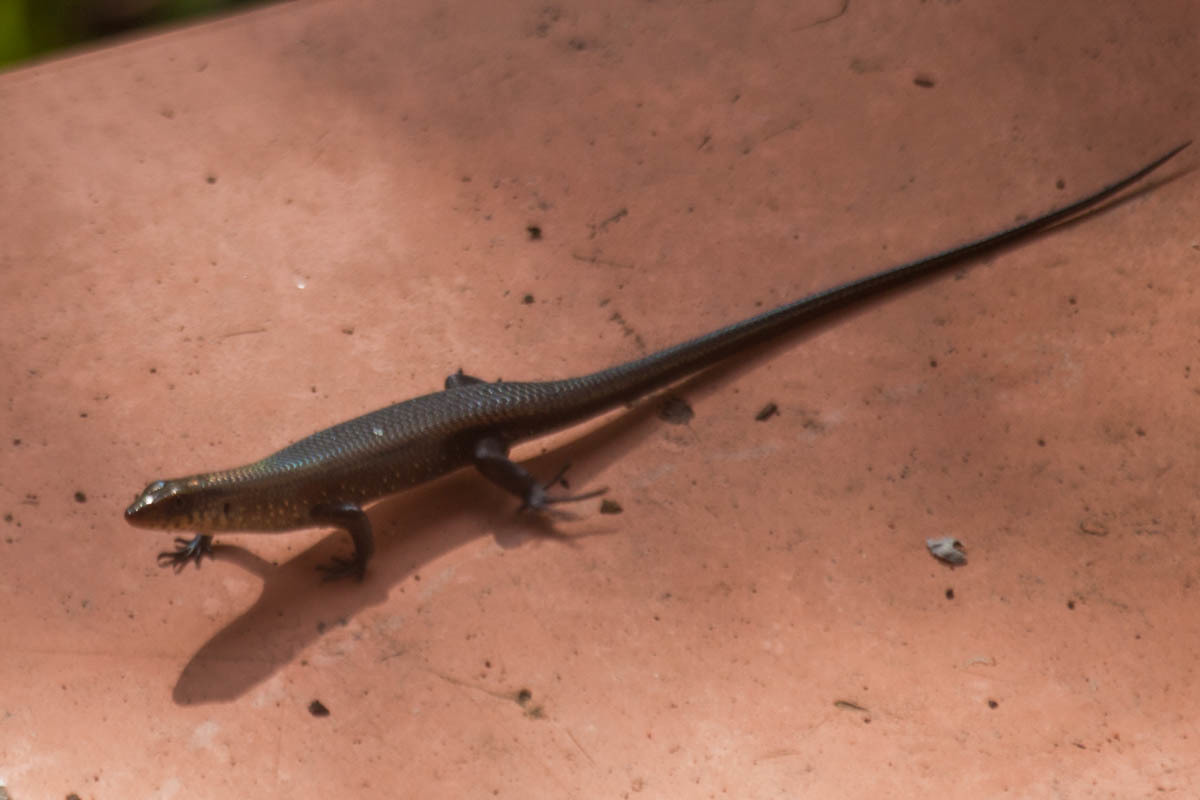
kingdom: Animalia
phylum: Chordata
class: Squamata
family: Scincidae
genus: Eutropis
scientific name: Eutropis multifasciata
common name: Common mabuya
